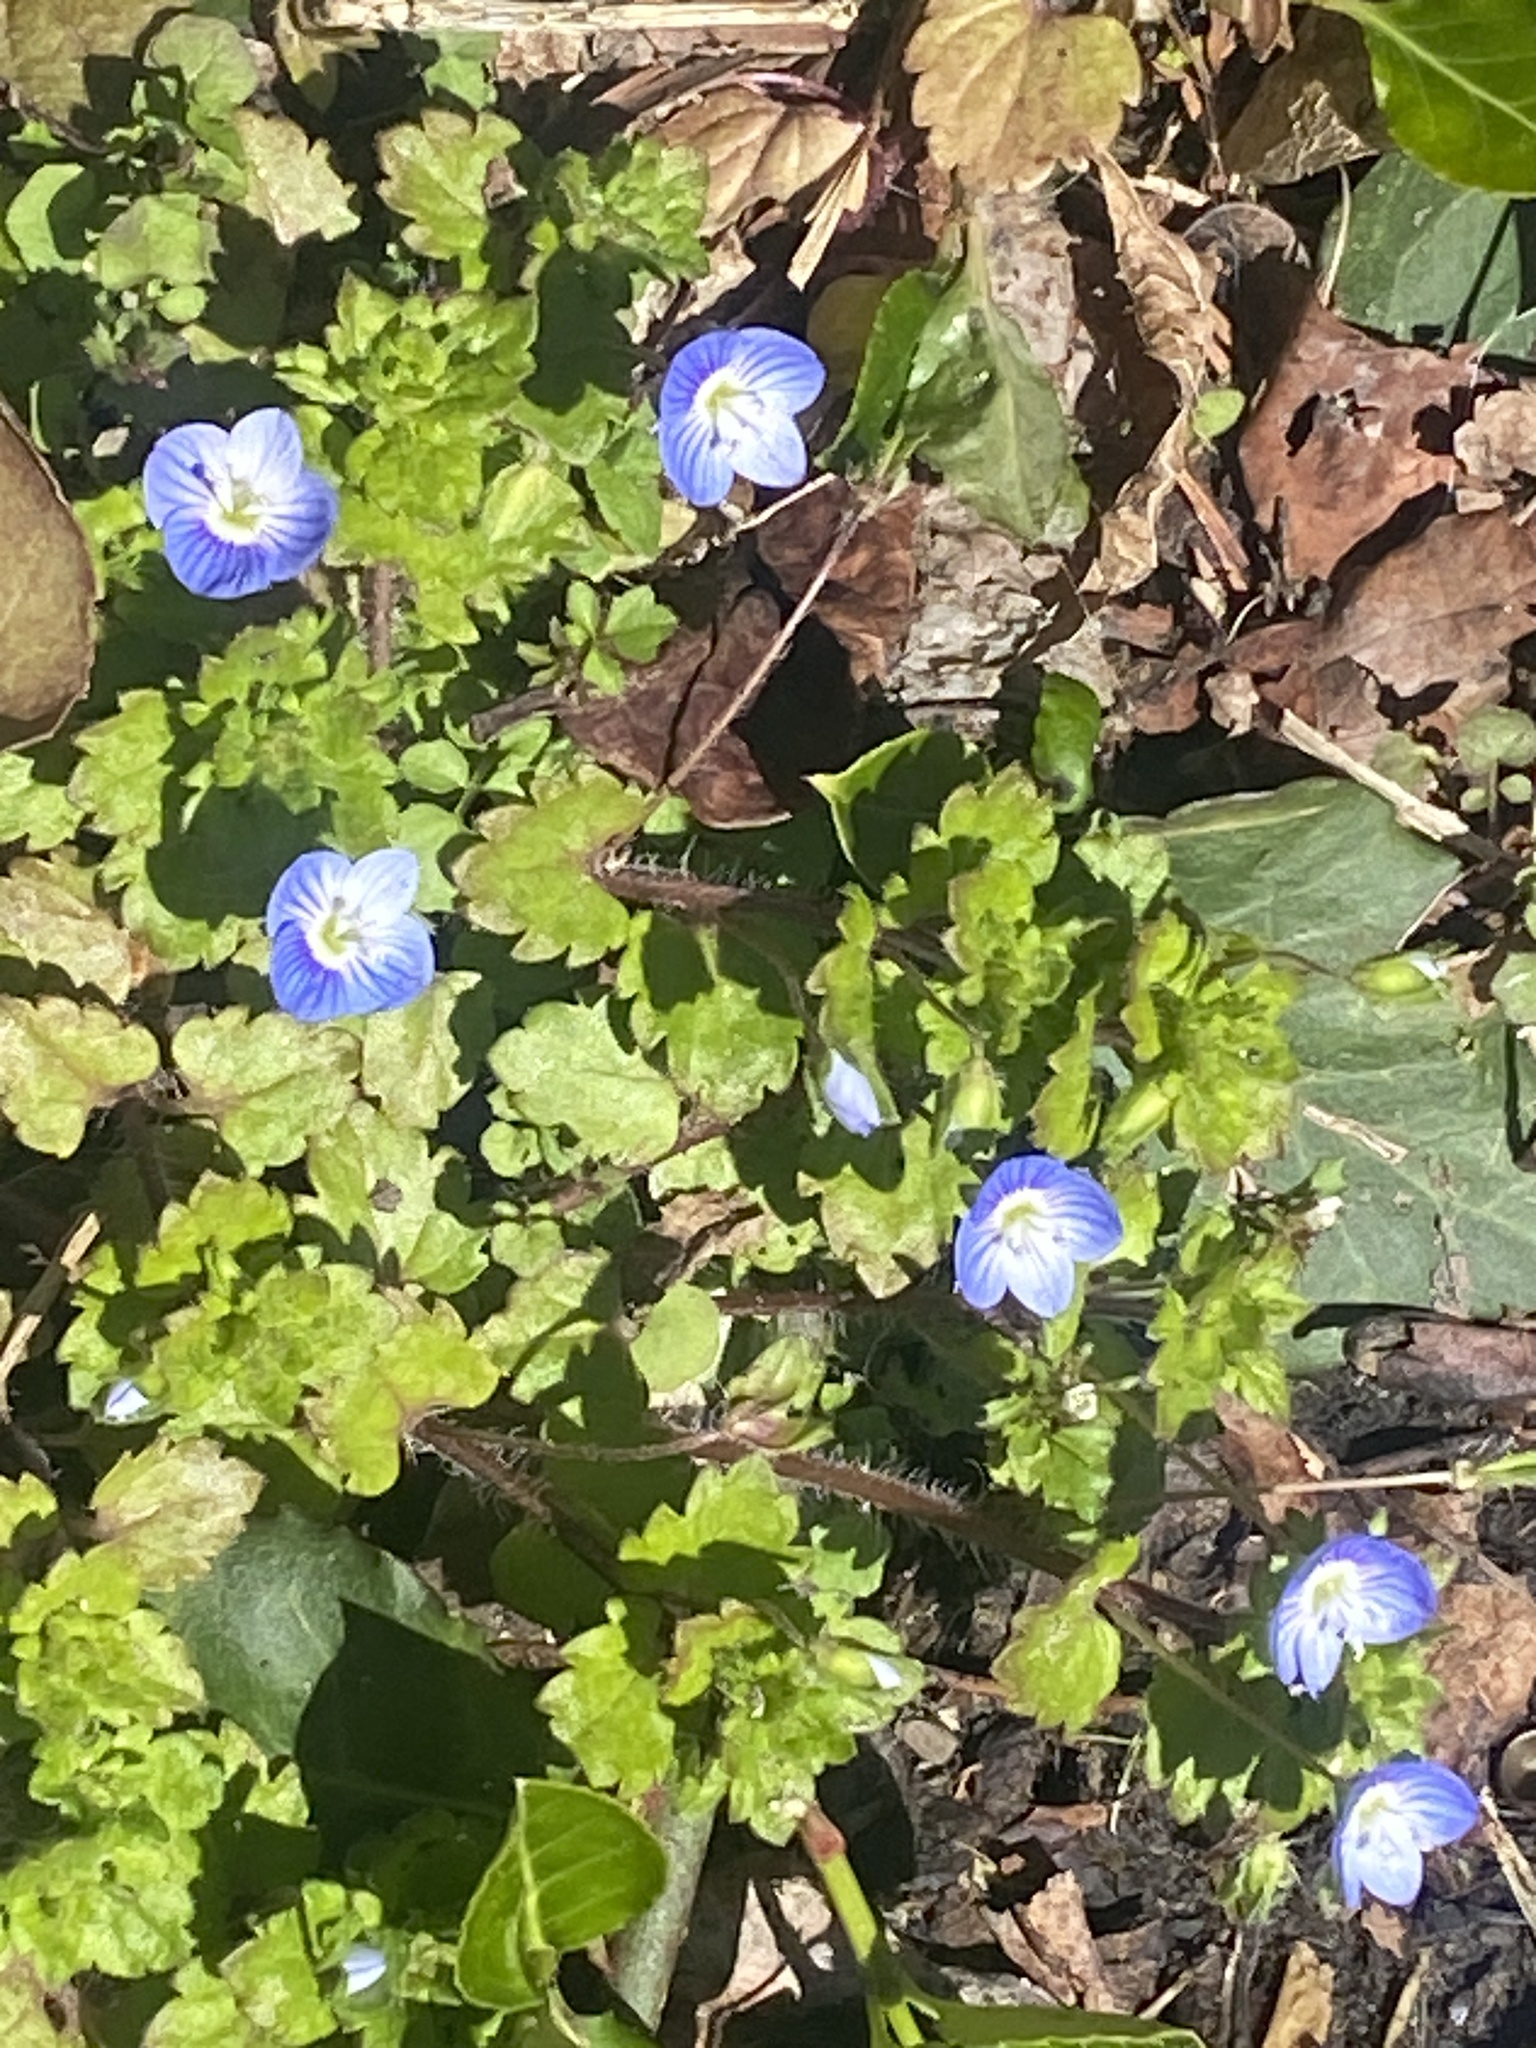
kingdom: Plantae
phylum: Tracheophyta
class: Magnoliopsida
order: Lamiales
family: Plantaginaceae
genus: Veronica
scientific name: Veronica persica
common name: Common field-speedwell
